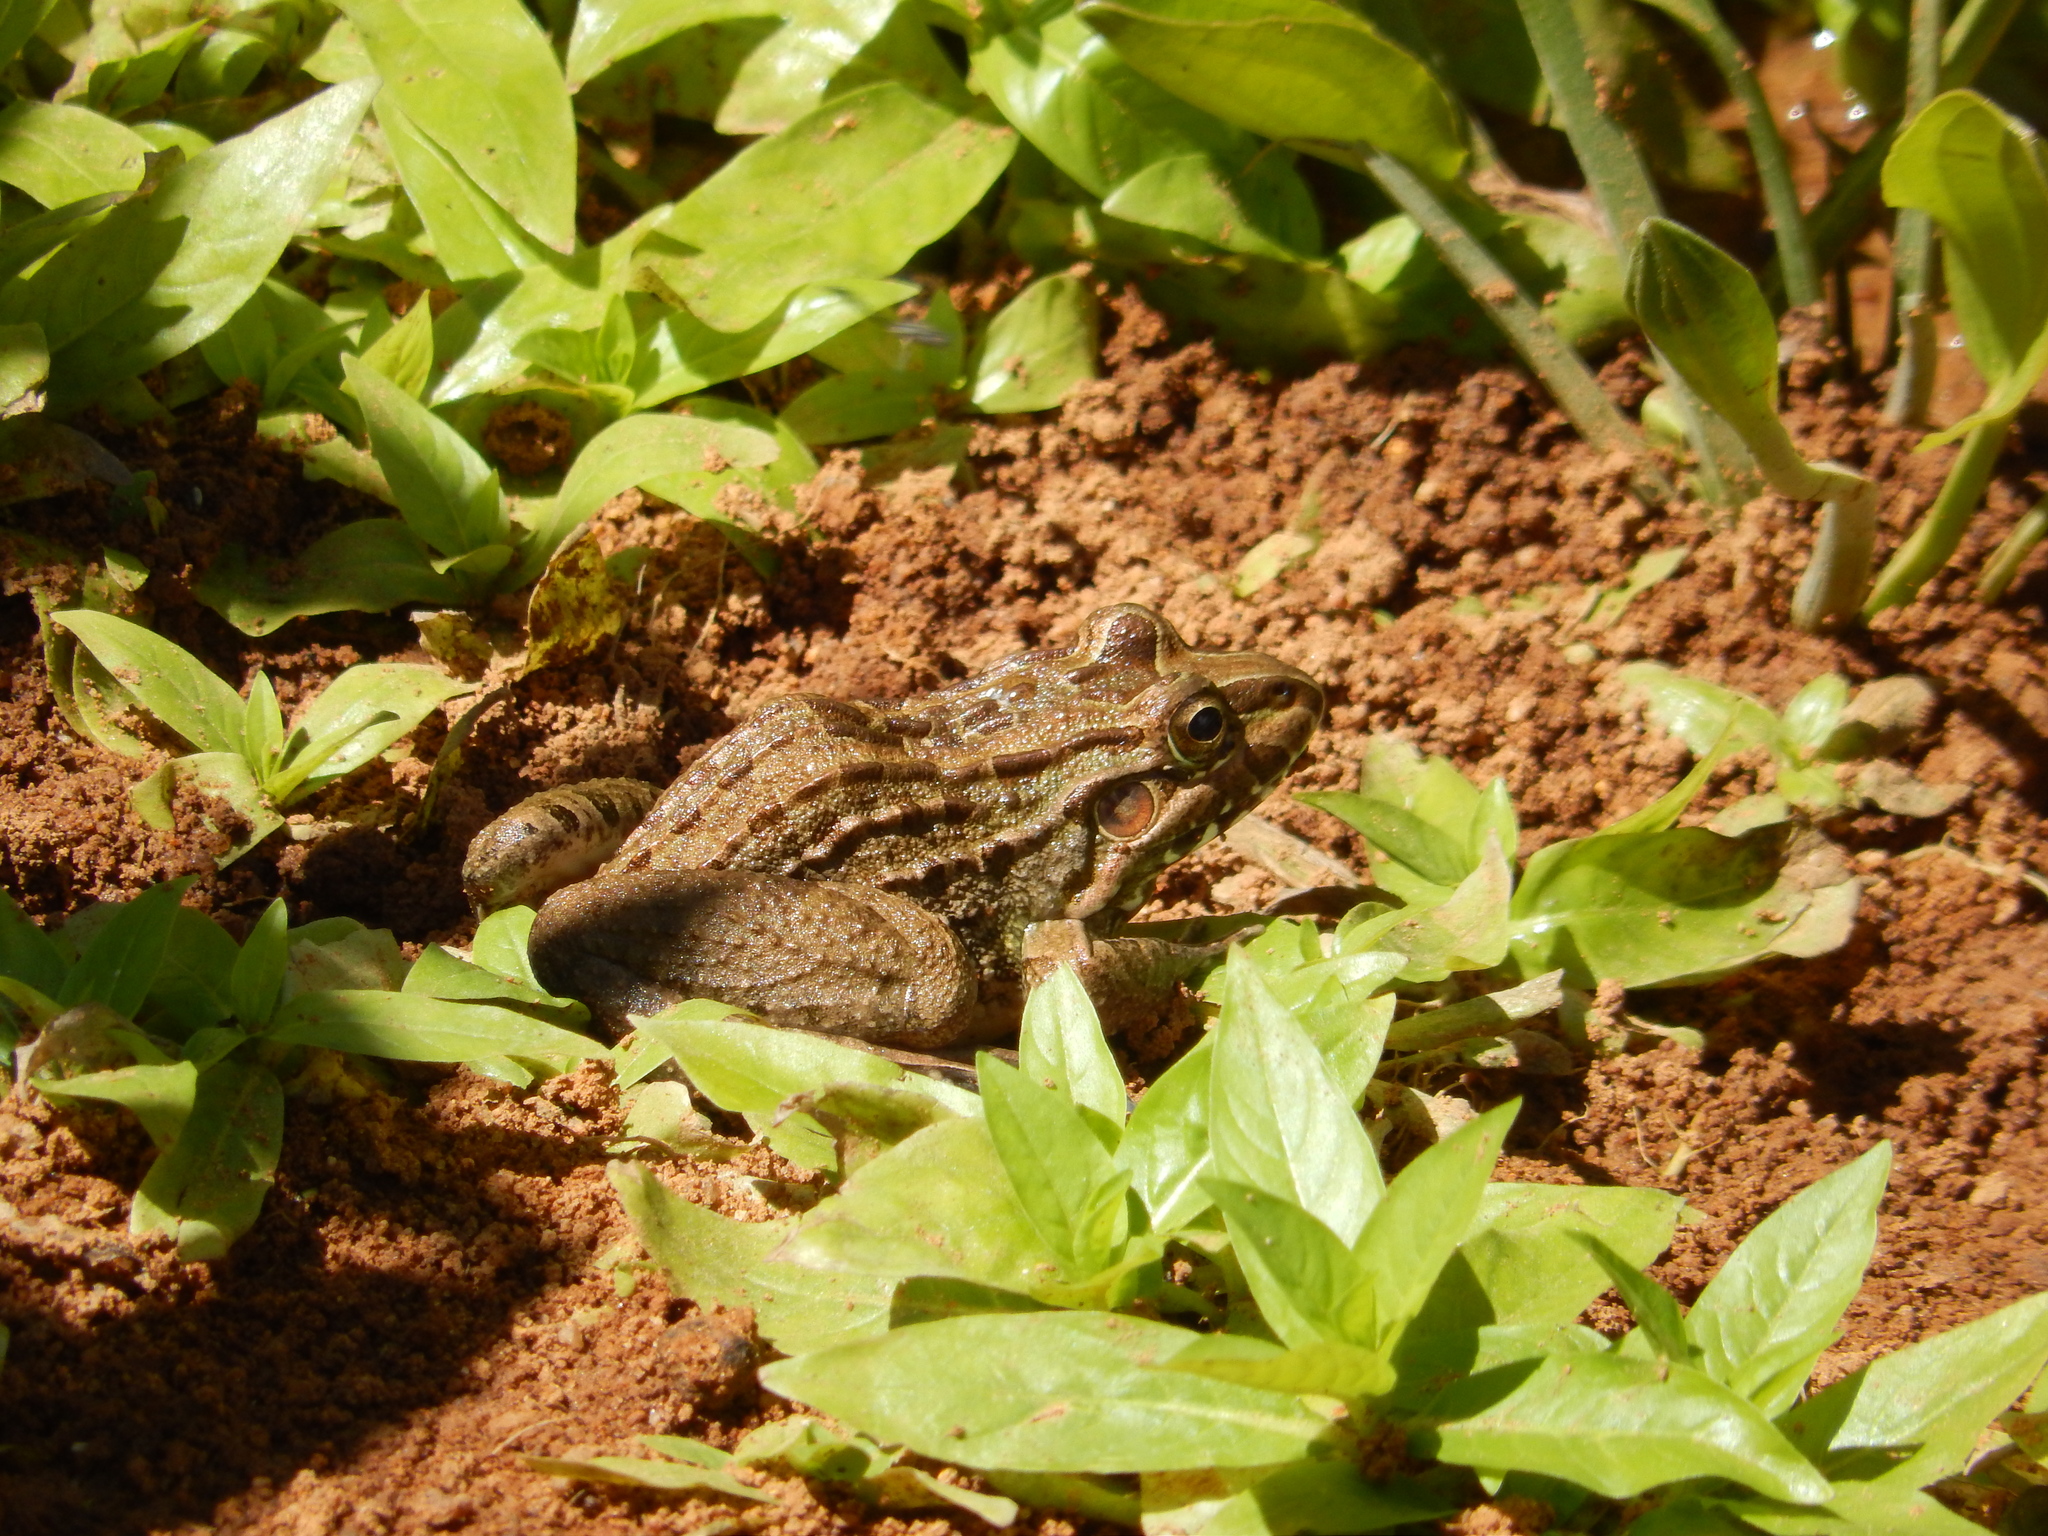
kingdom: Animalia
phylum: Chordata
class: Amphibia
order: Anura
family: Leptodactylidae
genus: Leptodactylus
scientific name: Leptodactylus macrosternum
